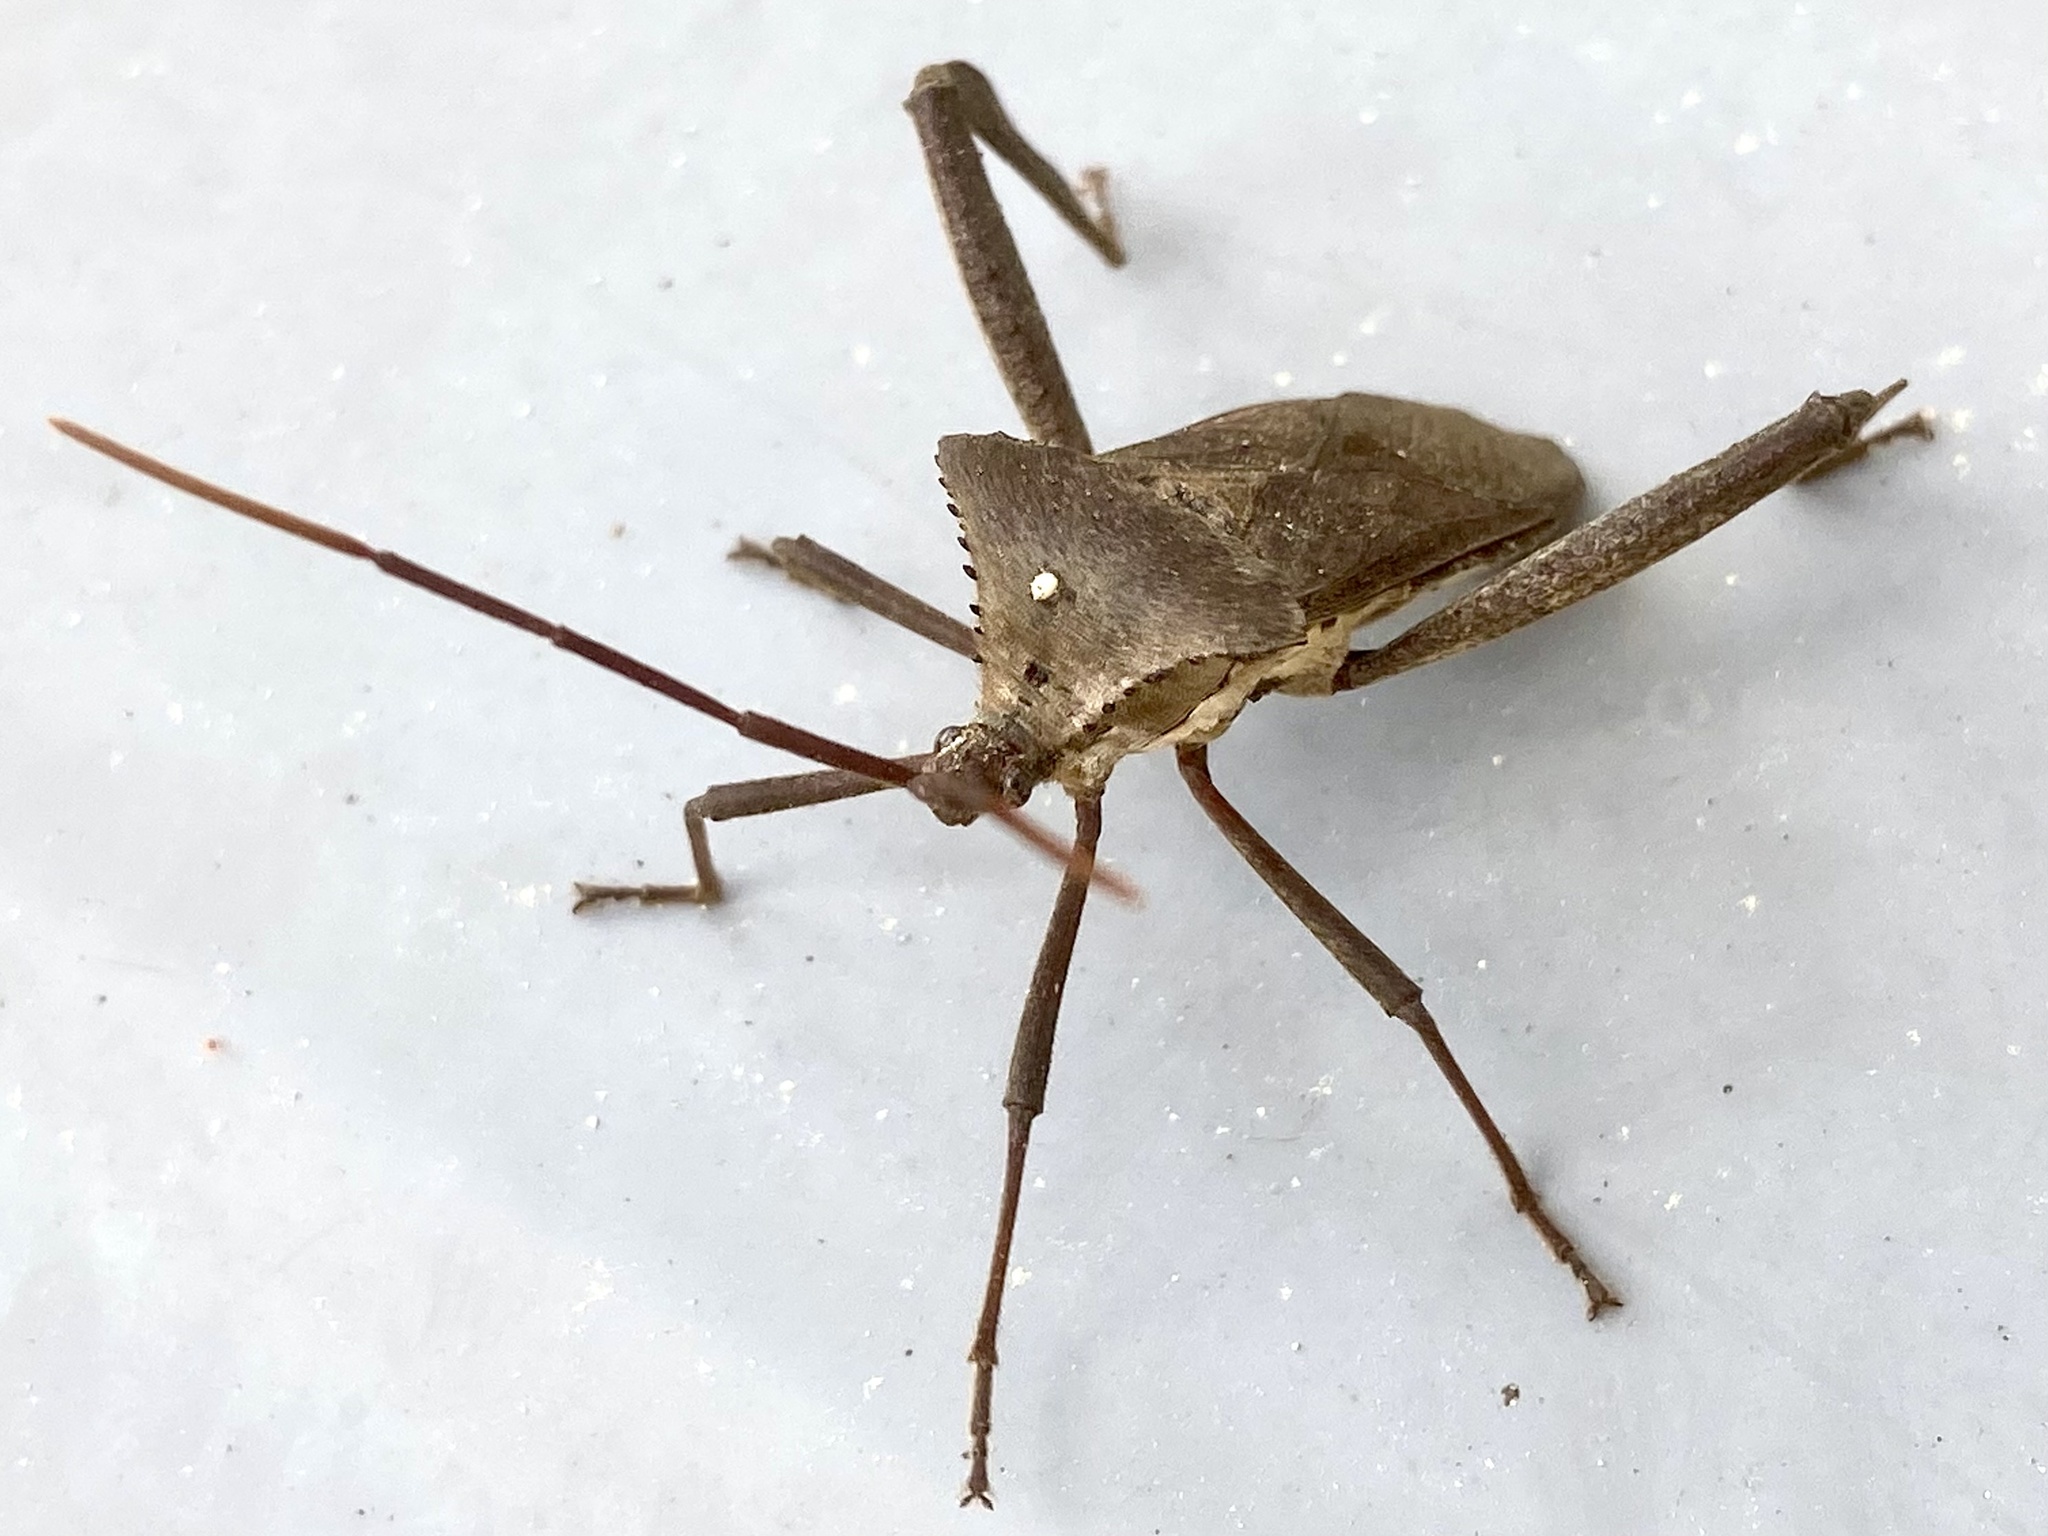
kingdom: Animalia
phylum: Arthropoda
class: Insecta
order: Hemiptera
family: Coreidae
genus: Acanthocephala
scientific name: Acanthocephala declivis
